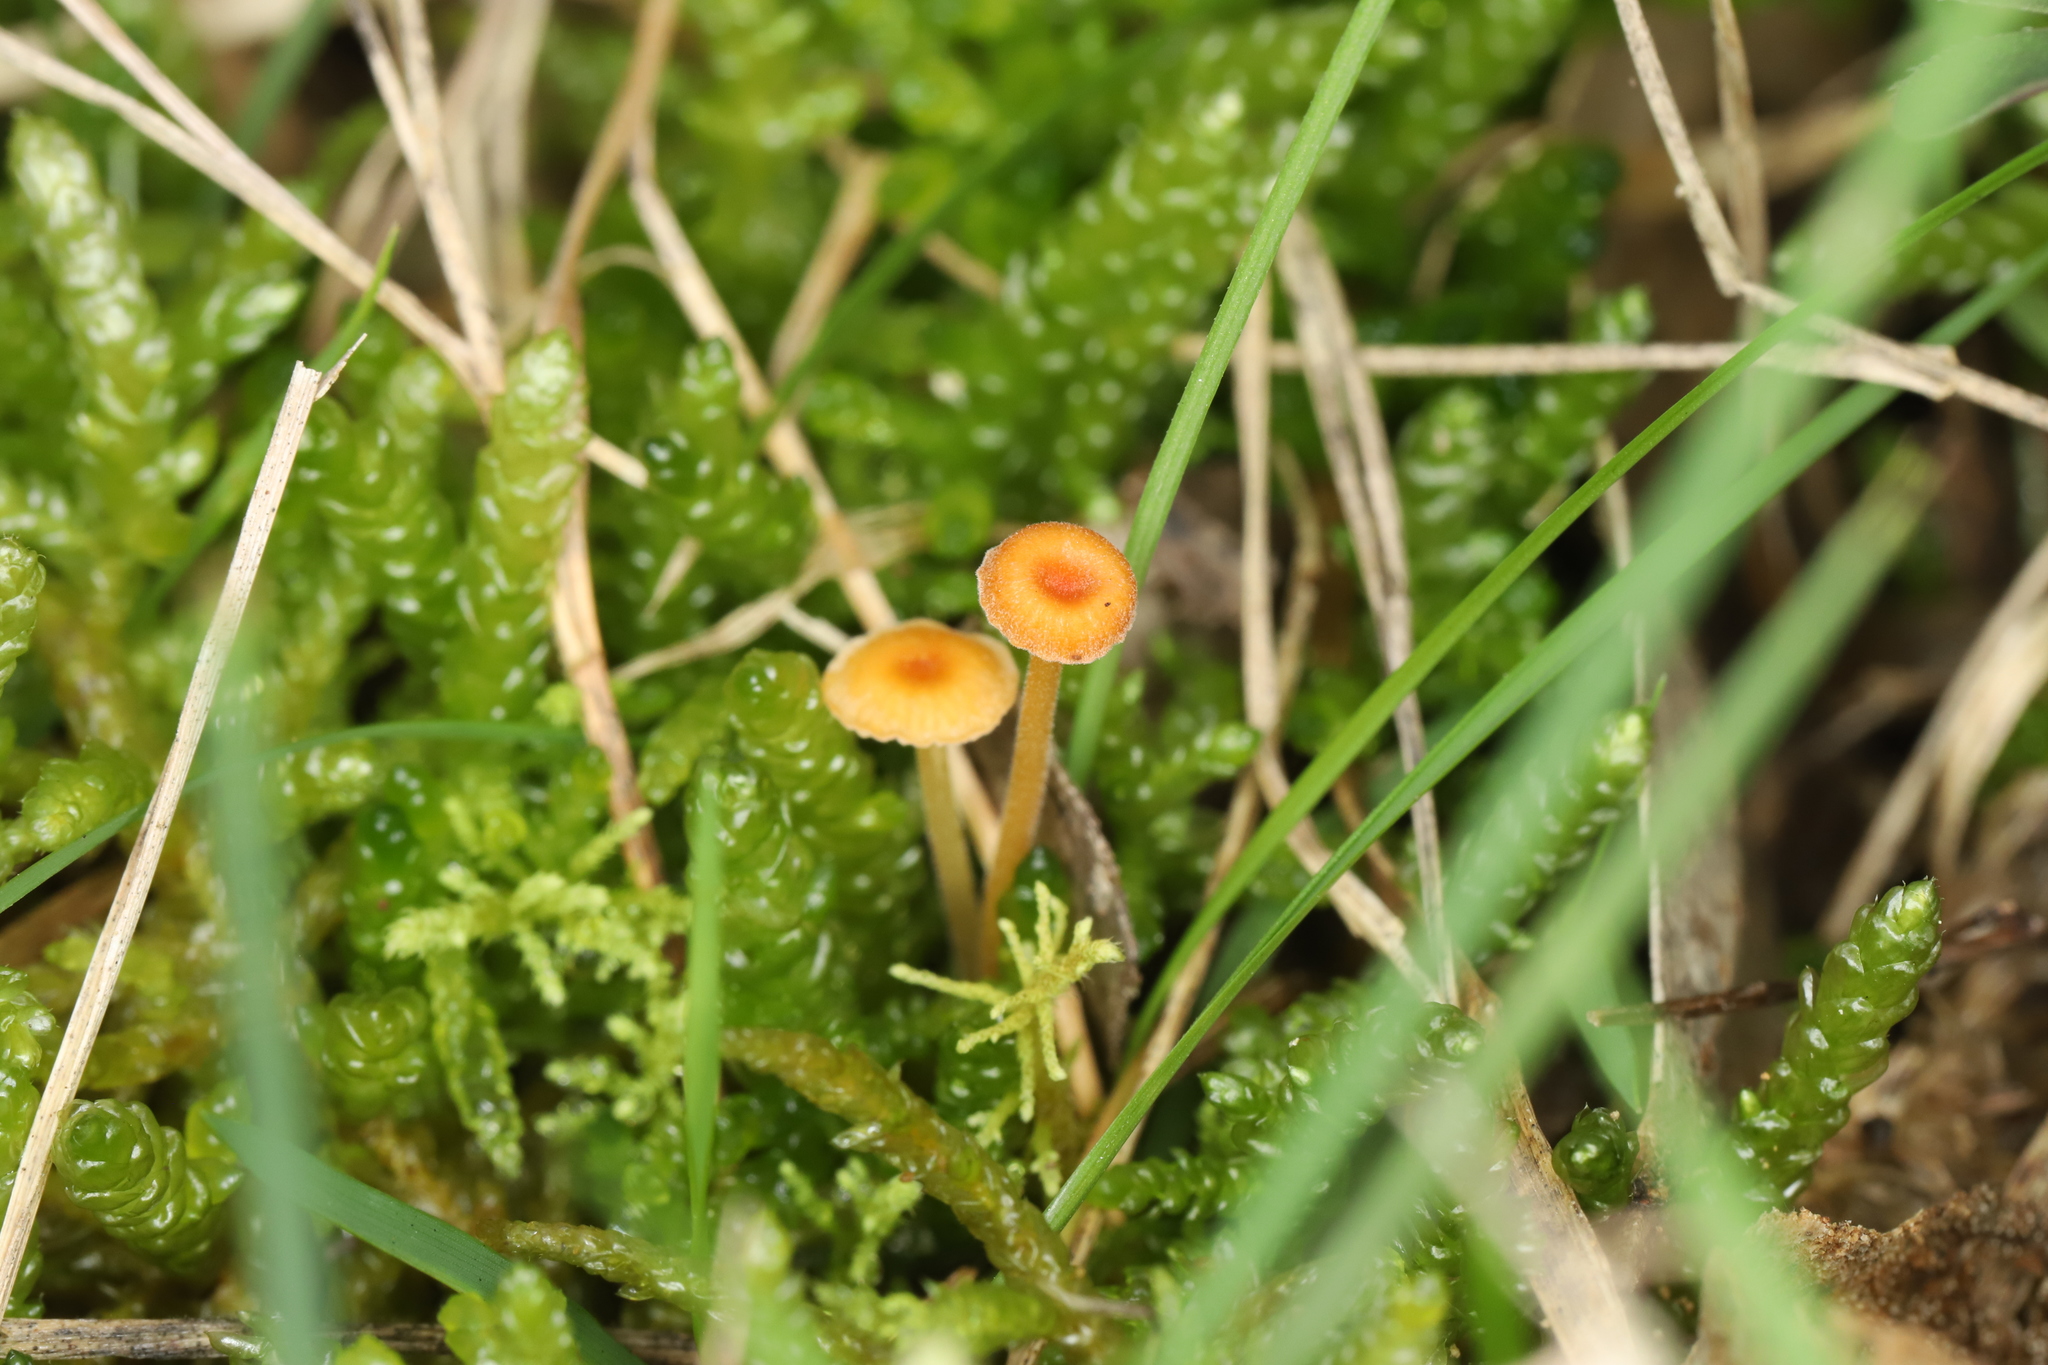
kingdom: Fungi
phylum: Basidiomycota
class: Agaricomycetes
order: Hymenochaetales
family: Rickenellaceae
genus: Rickenella
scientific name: Rickenella fibula
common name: Orange mosscap
